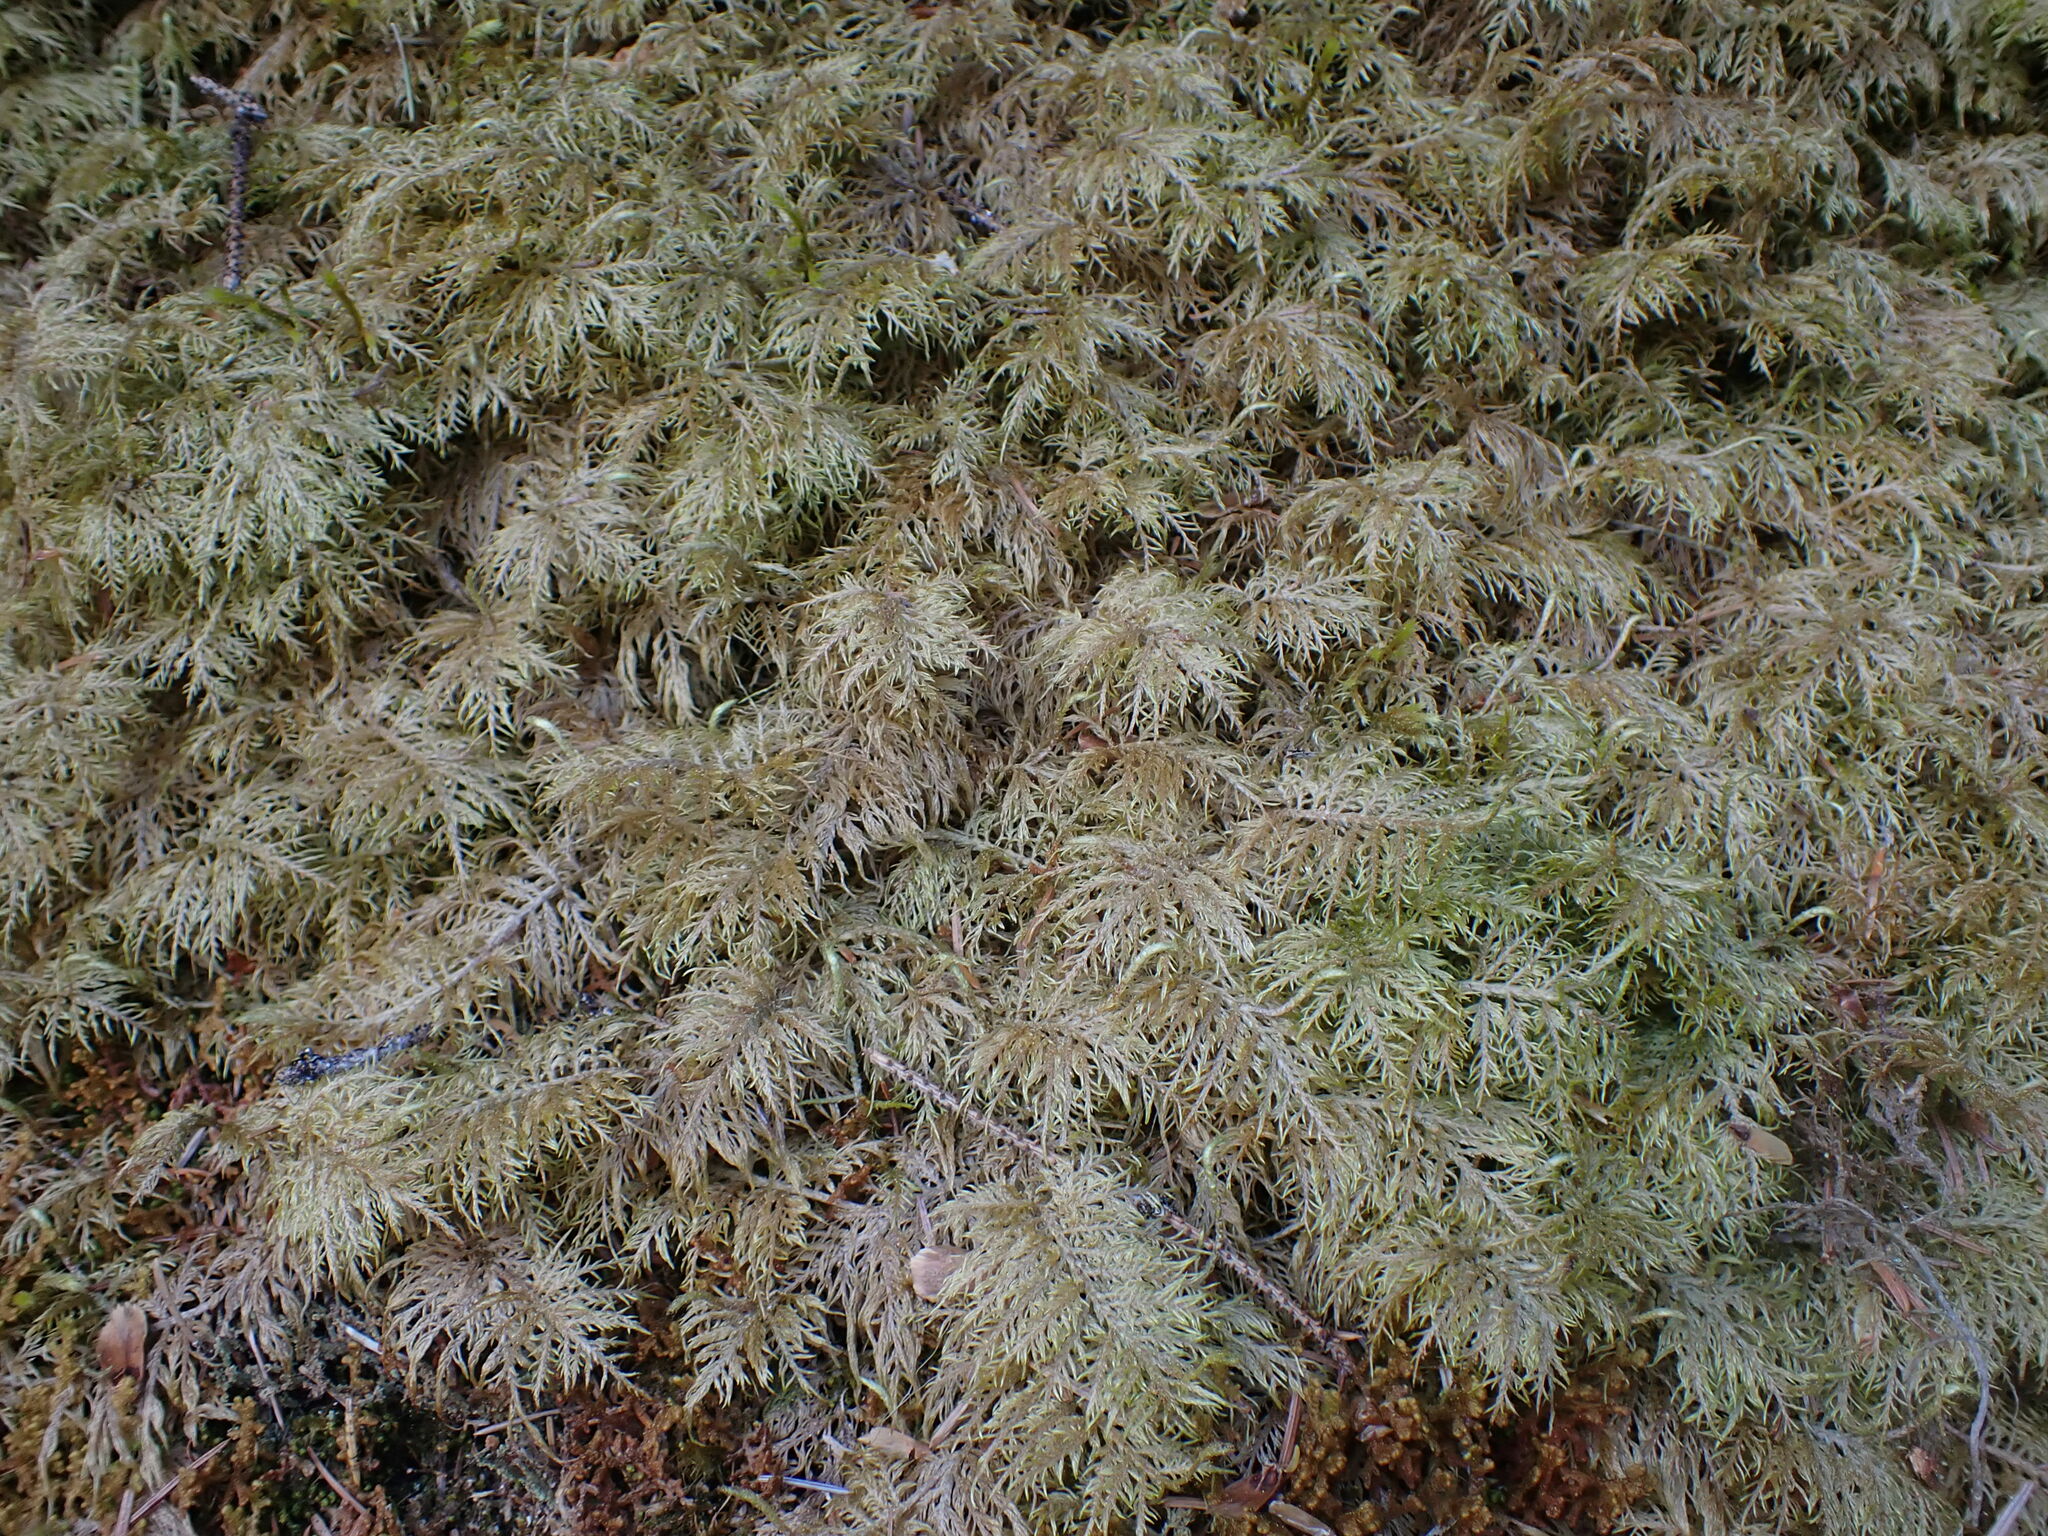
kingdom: Plantae
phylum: Bryophyta
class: Bryopsida
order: Hypnales
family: Hylocomiaceae
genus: Hylocomium
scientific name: Hylocomium splendens
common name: Stairstep moss
